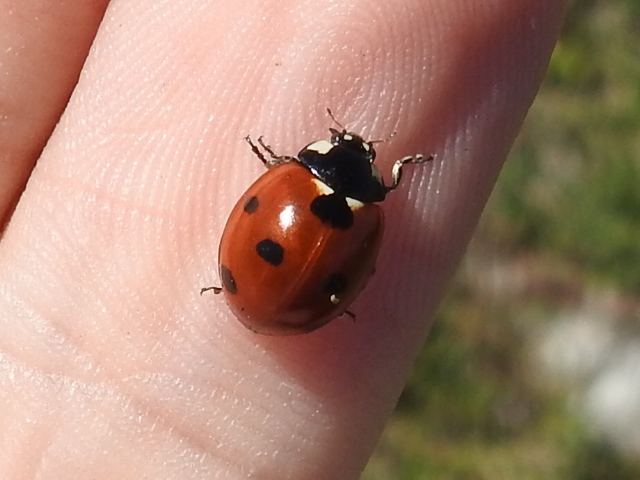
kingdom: Animalia
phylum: Arthropoda
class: Insecta
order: Coleoptera
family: Coccinellidae
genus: Coccinella
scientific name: Coccinella septempunctata
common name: Sevenspotted lady beetle
